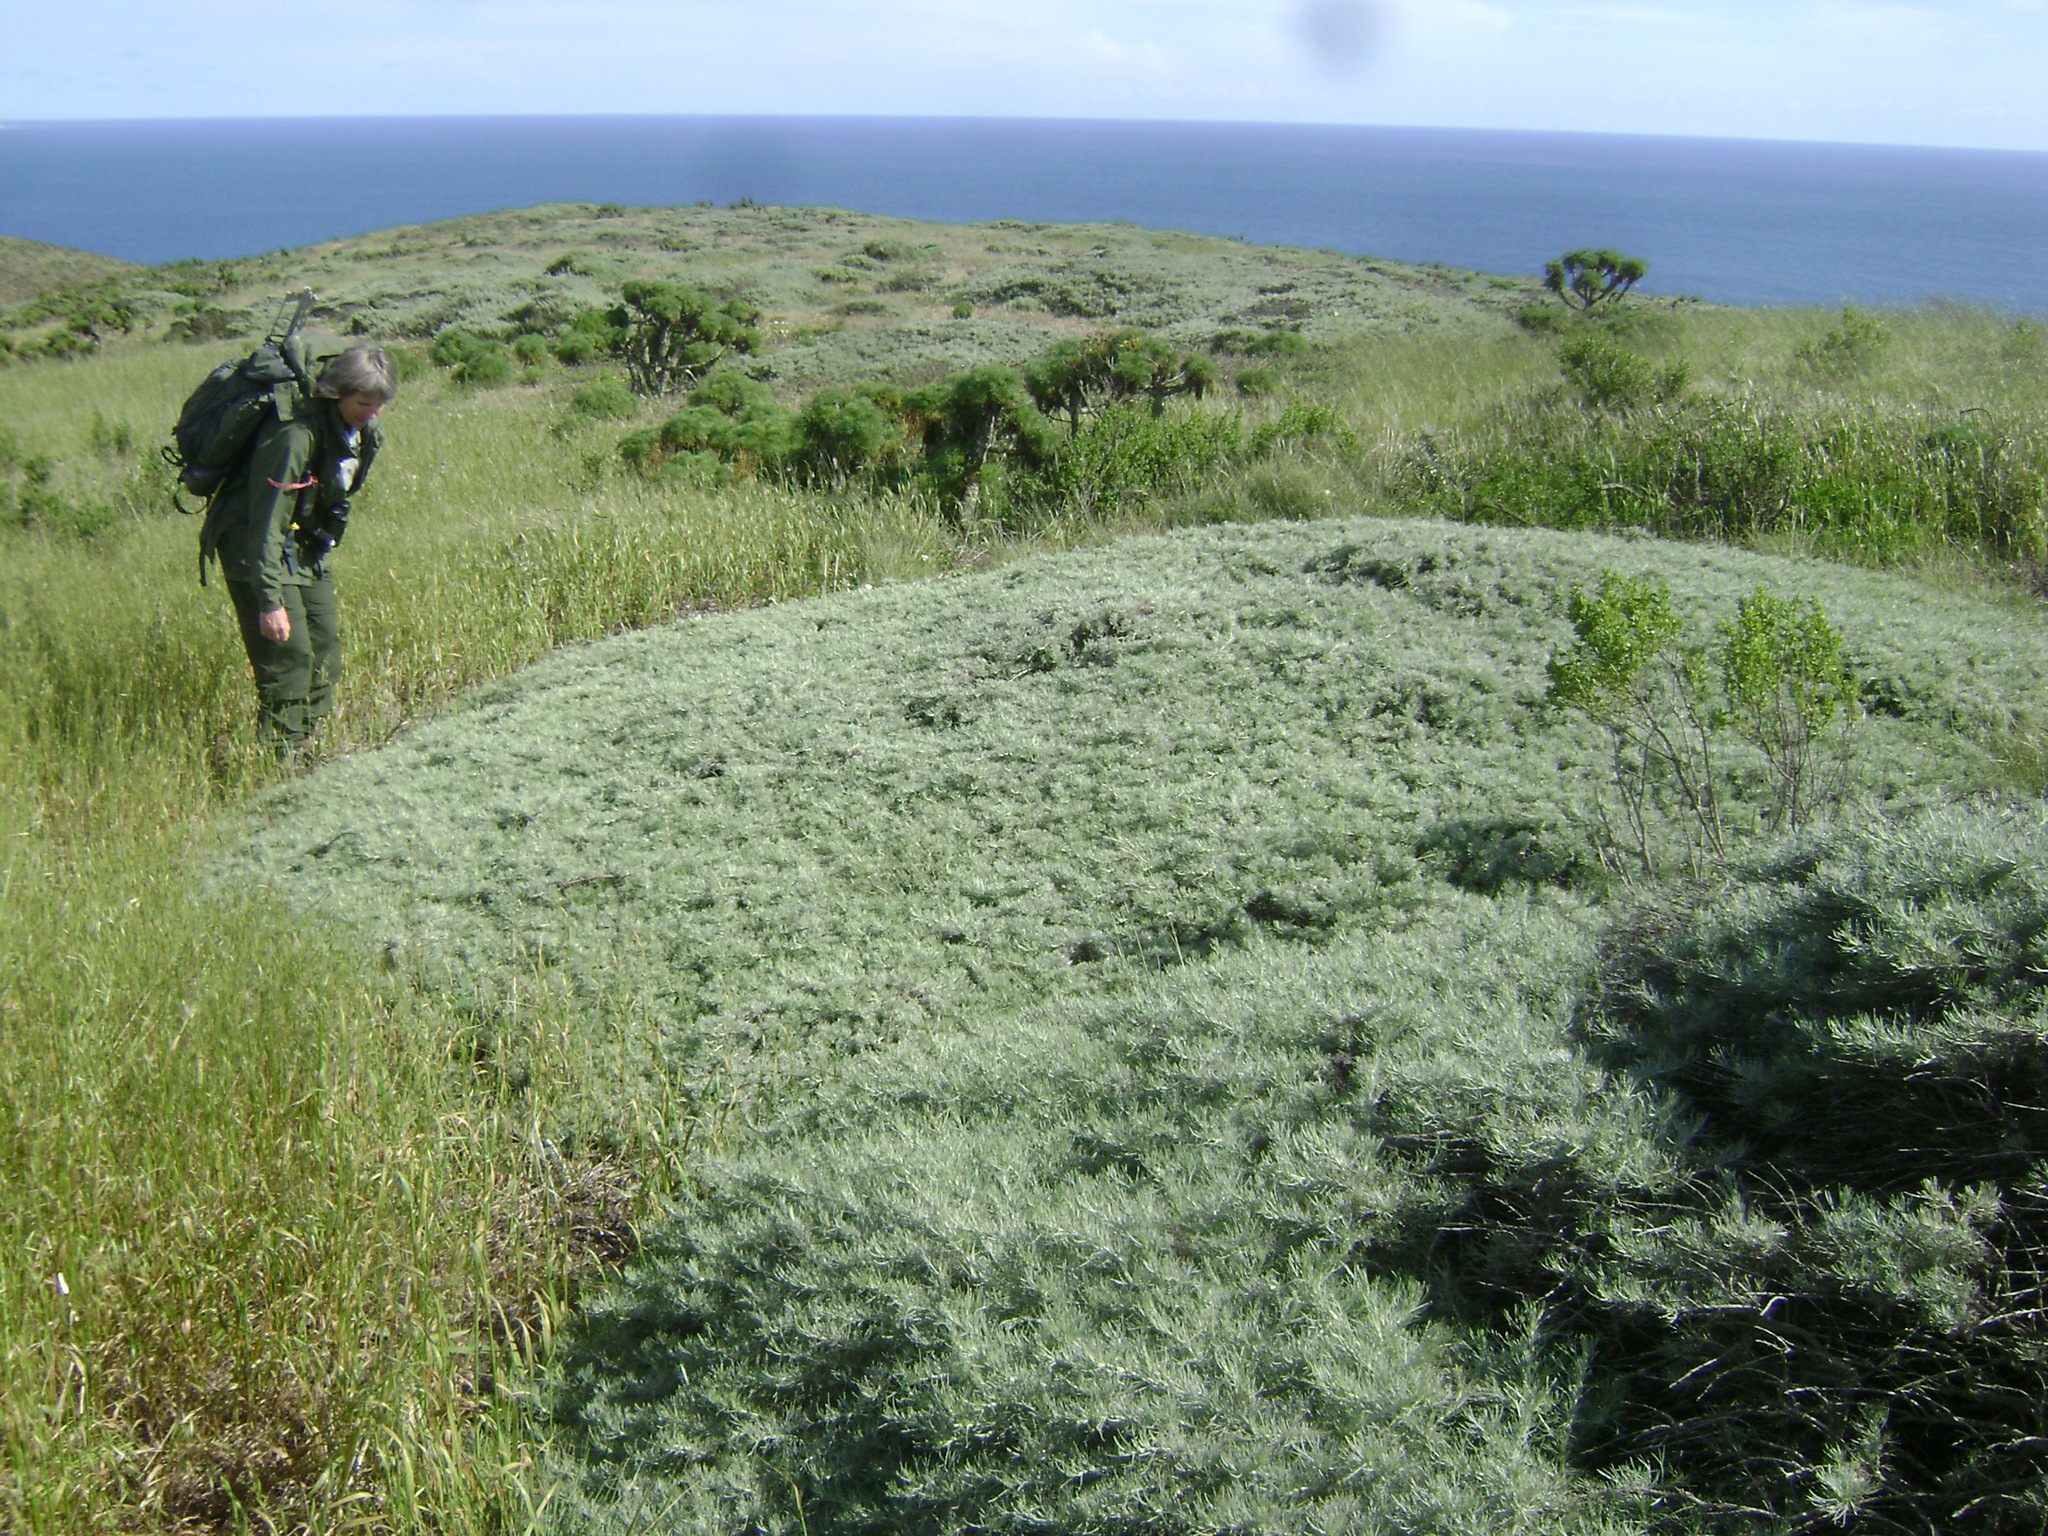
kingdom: Plantae
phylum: Tracheophyta
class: Magnoliopsida
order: Asterales
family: Asteraceae
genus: Artemisia
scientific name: Artemisia californica
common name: California sagebrush
